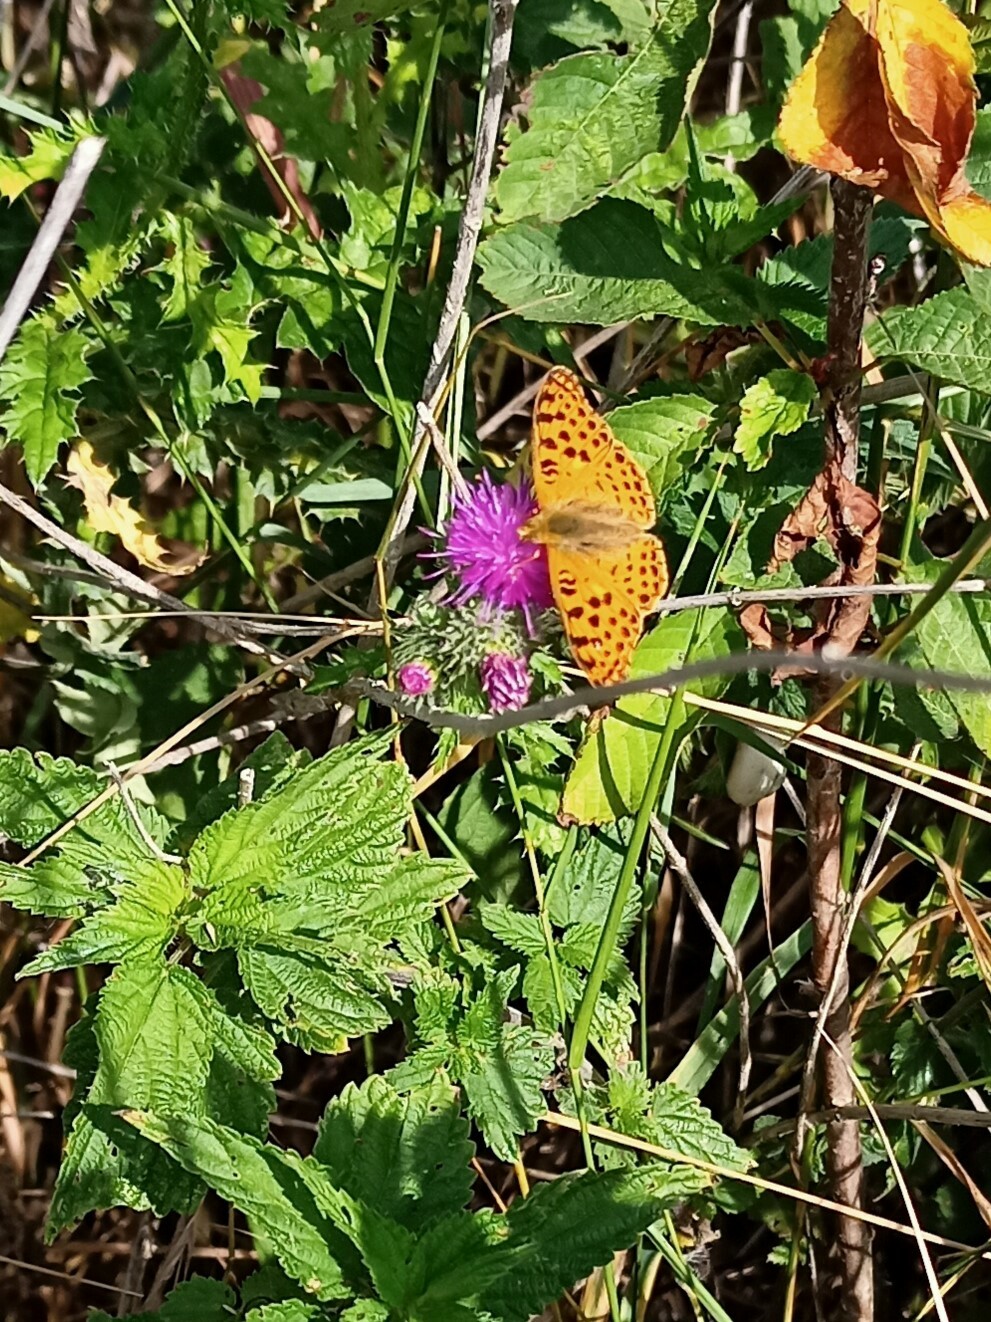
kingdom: Animalia
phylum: Arthropoda
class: Insecta
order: Lepidoptera
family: Nymphalidae
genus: Issoria
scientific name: Issoria lathonia
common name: Queen of spain fritillary
